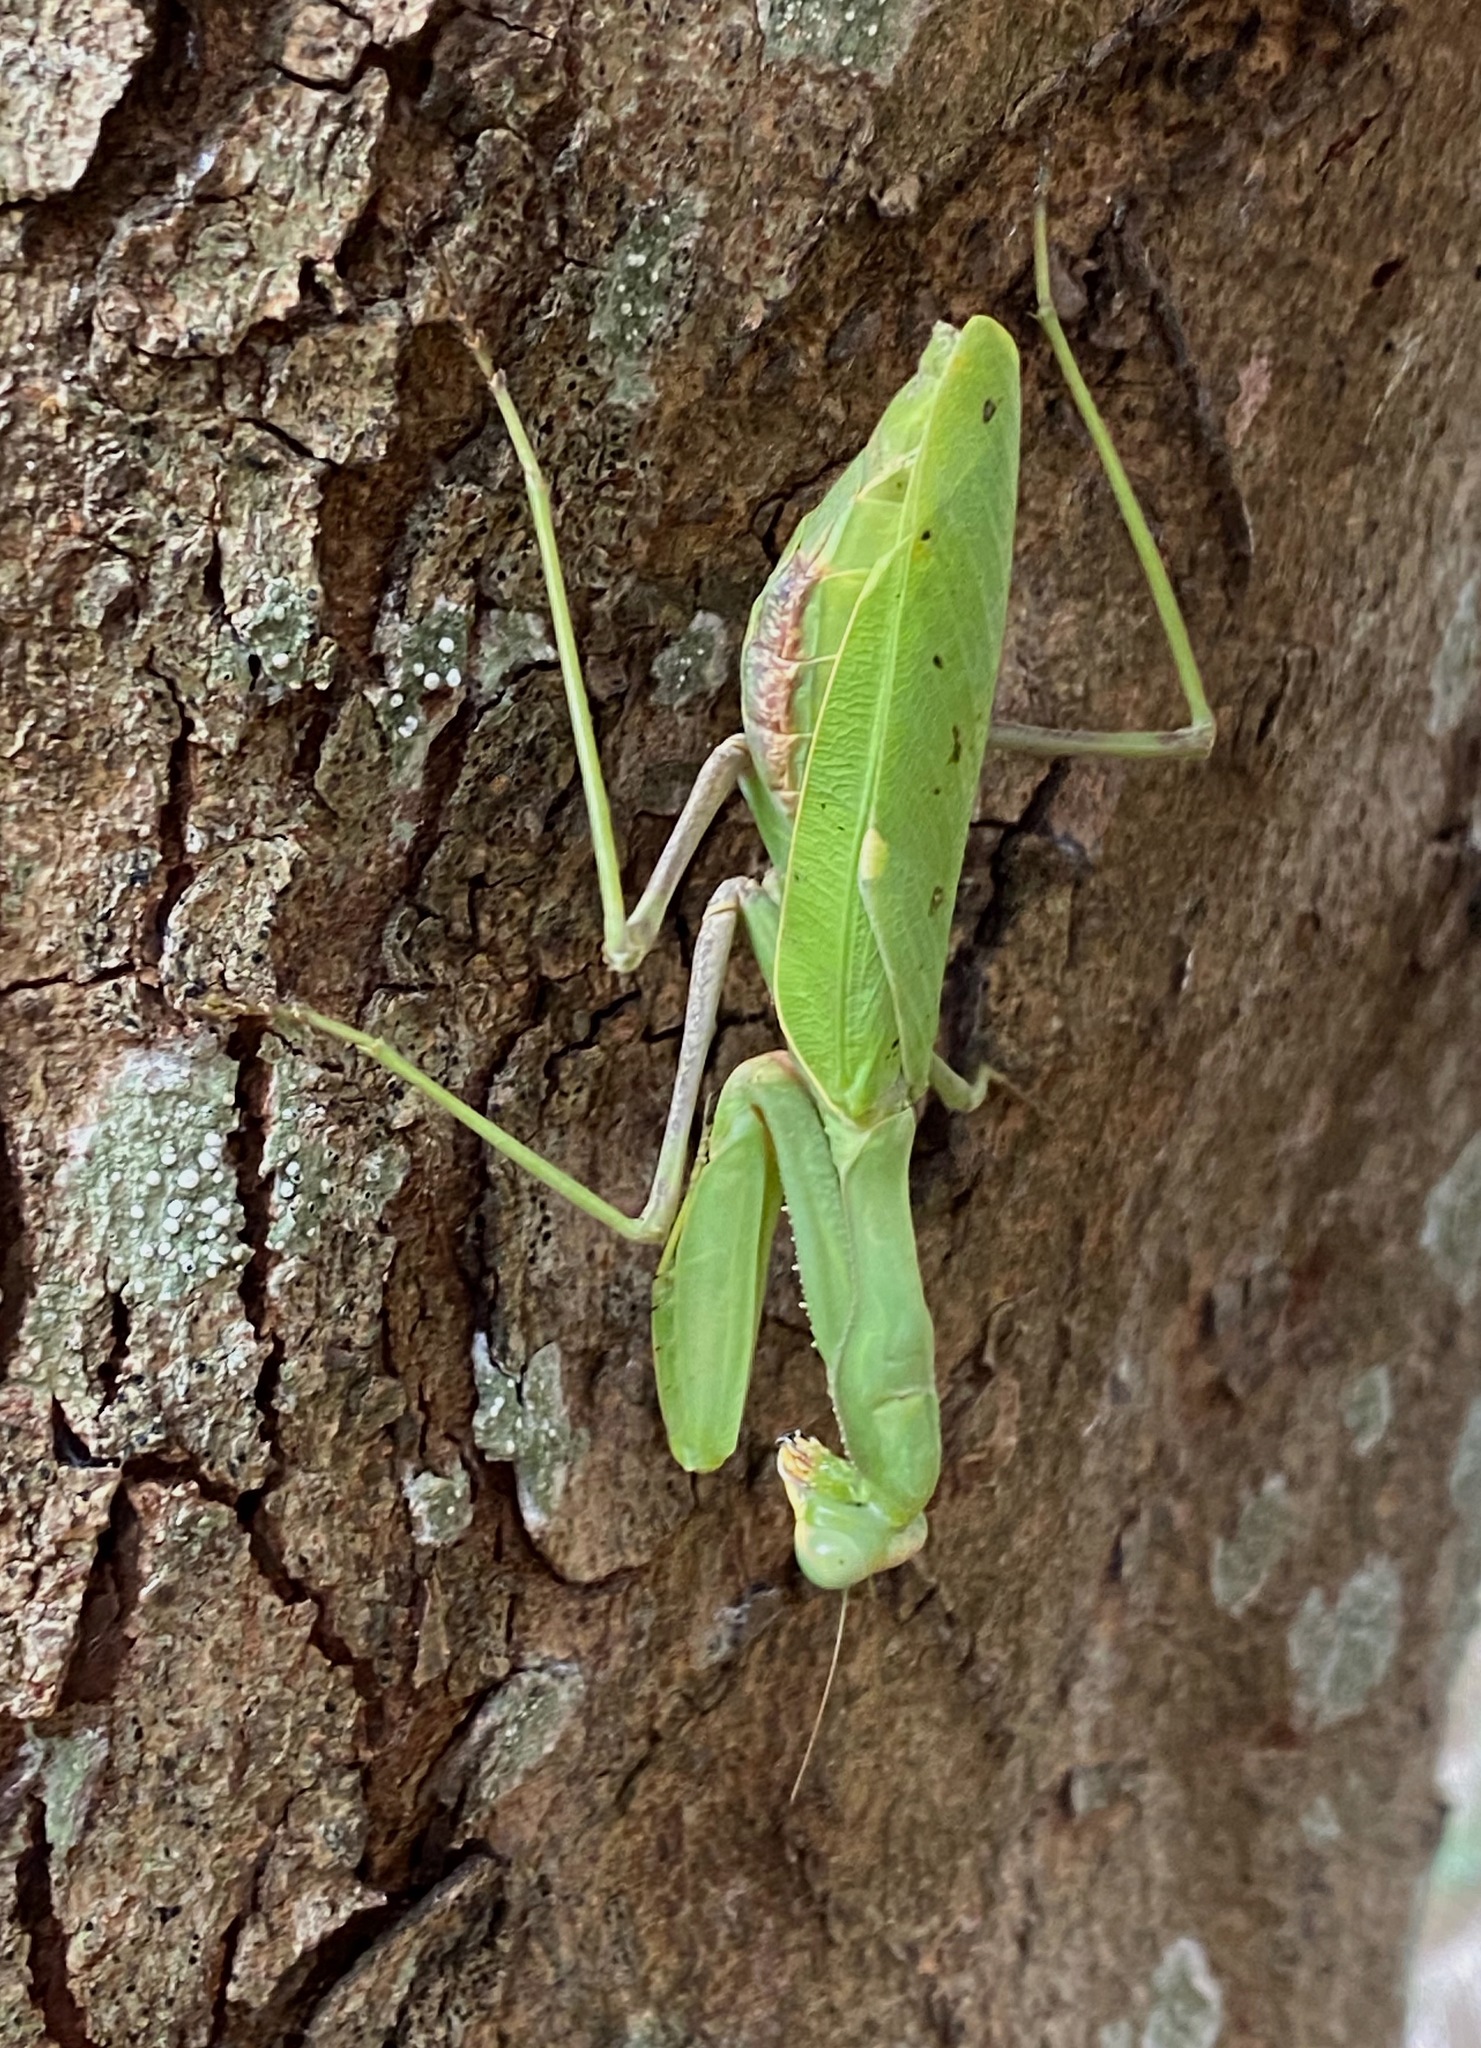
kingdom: Animalia
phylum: Arthropoda
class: Insecta
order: Mantodea
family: Mantidae
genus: Sphodromantis
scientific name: Sphodromantis viridis
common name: Giant african mantis
